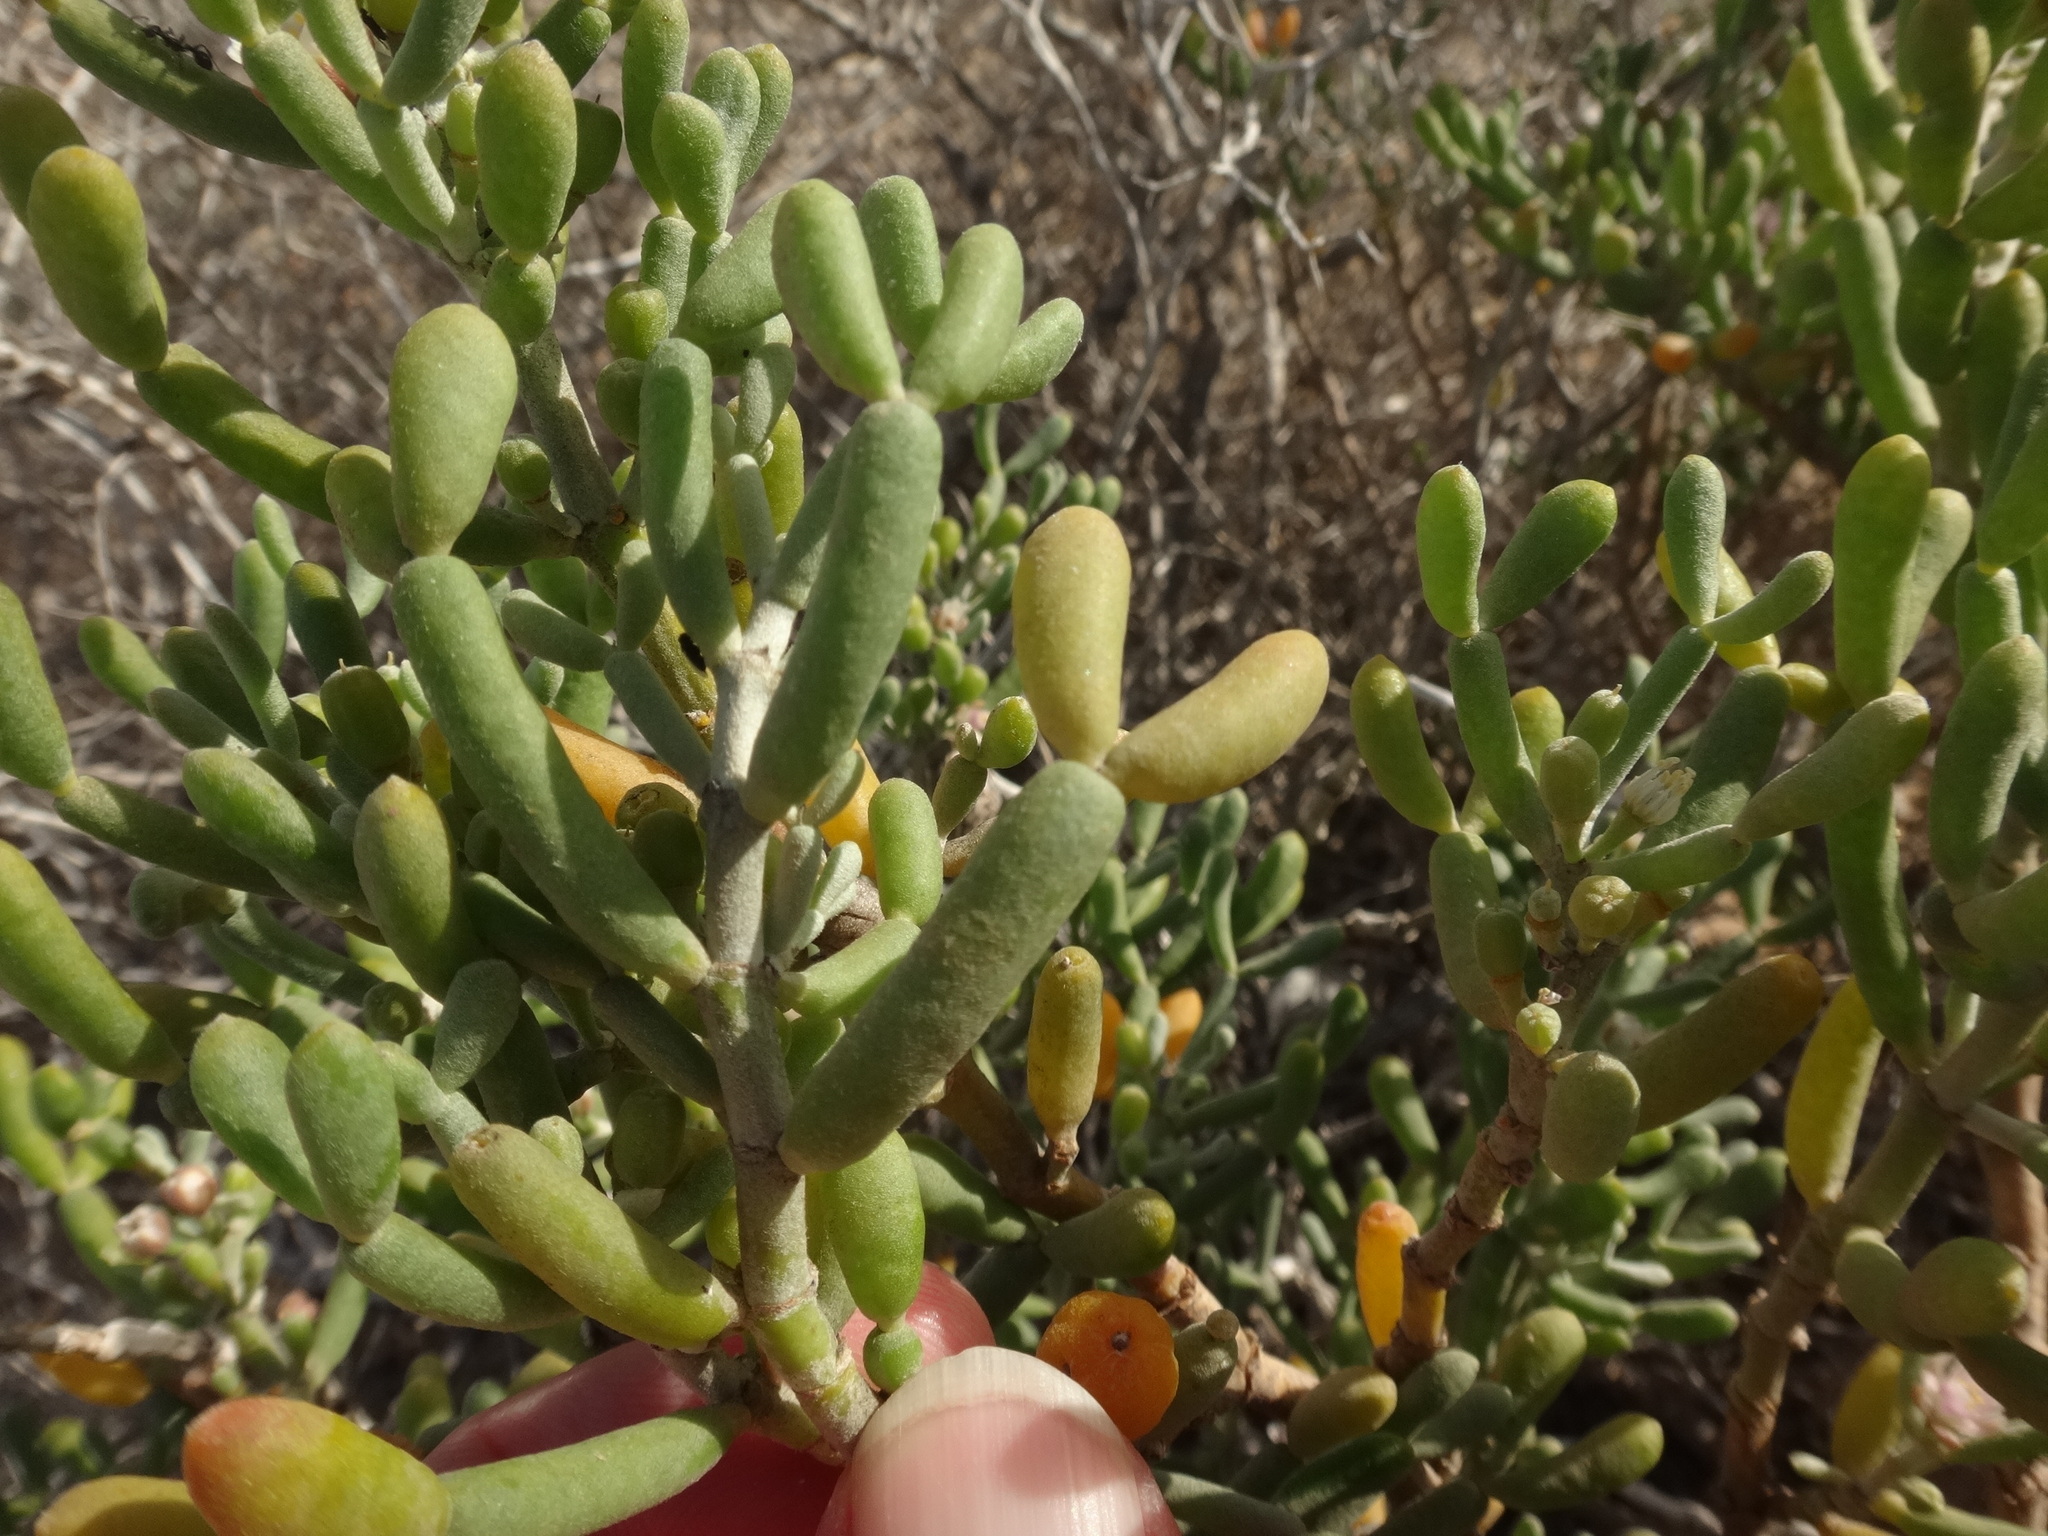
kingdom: Plantae
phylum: Tracheophyta
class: Magnoliopsida
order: Zygophyllales
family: Zygophyllaceae
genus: Tetraena
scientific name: Tetraena fontanesii
